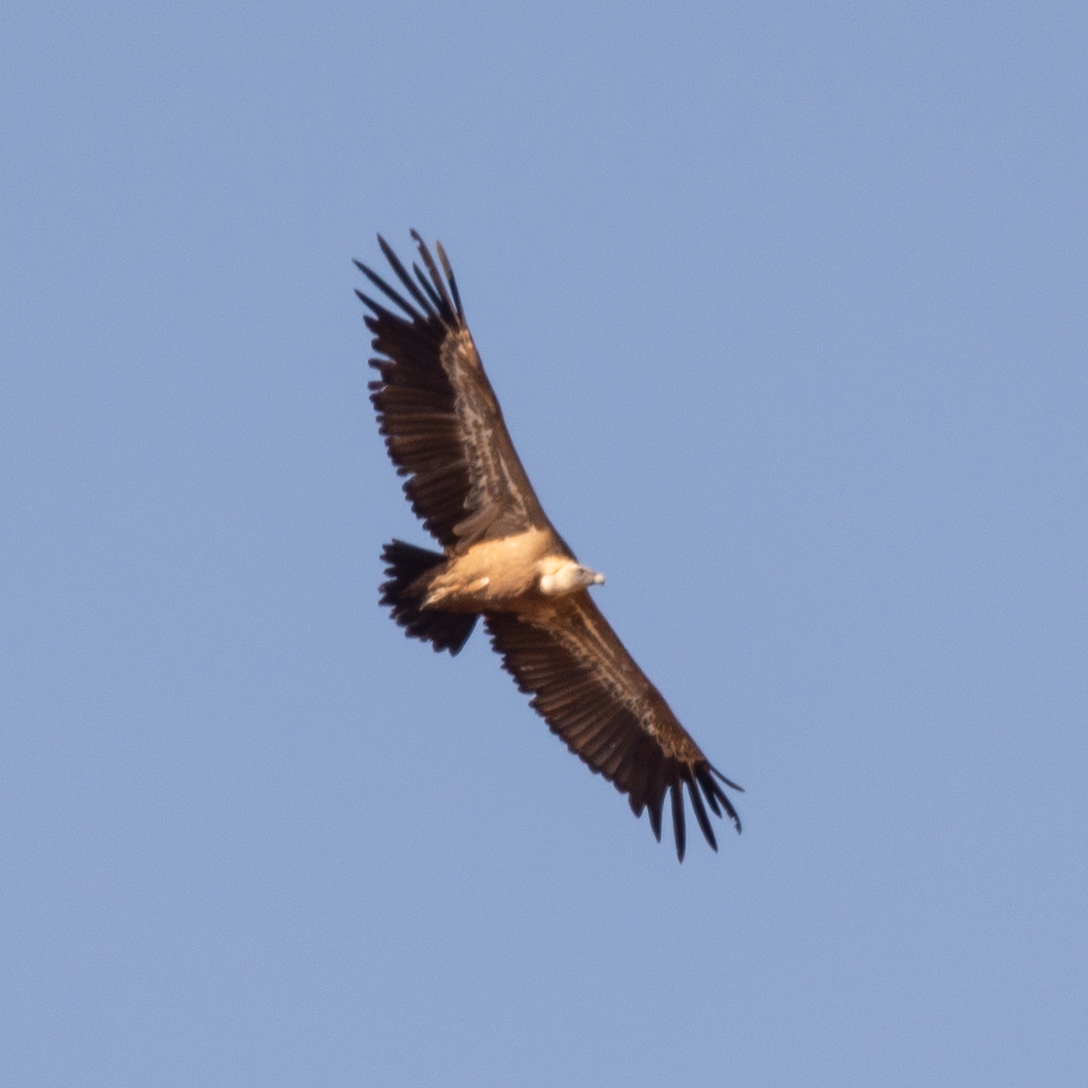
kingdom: Animalia
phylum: Chordata
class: Aves
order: Accipitriformes
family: Accipitridae
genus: Gyps
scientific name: Gyps fulvus
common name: Griffon vulture
